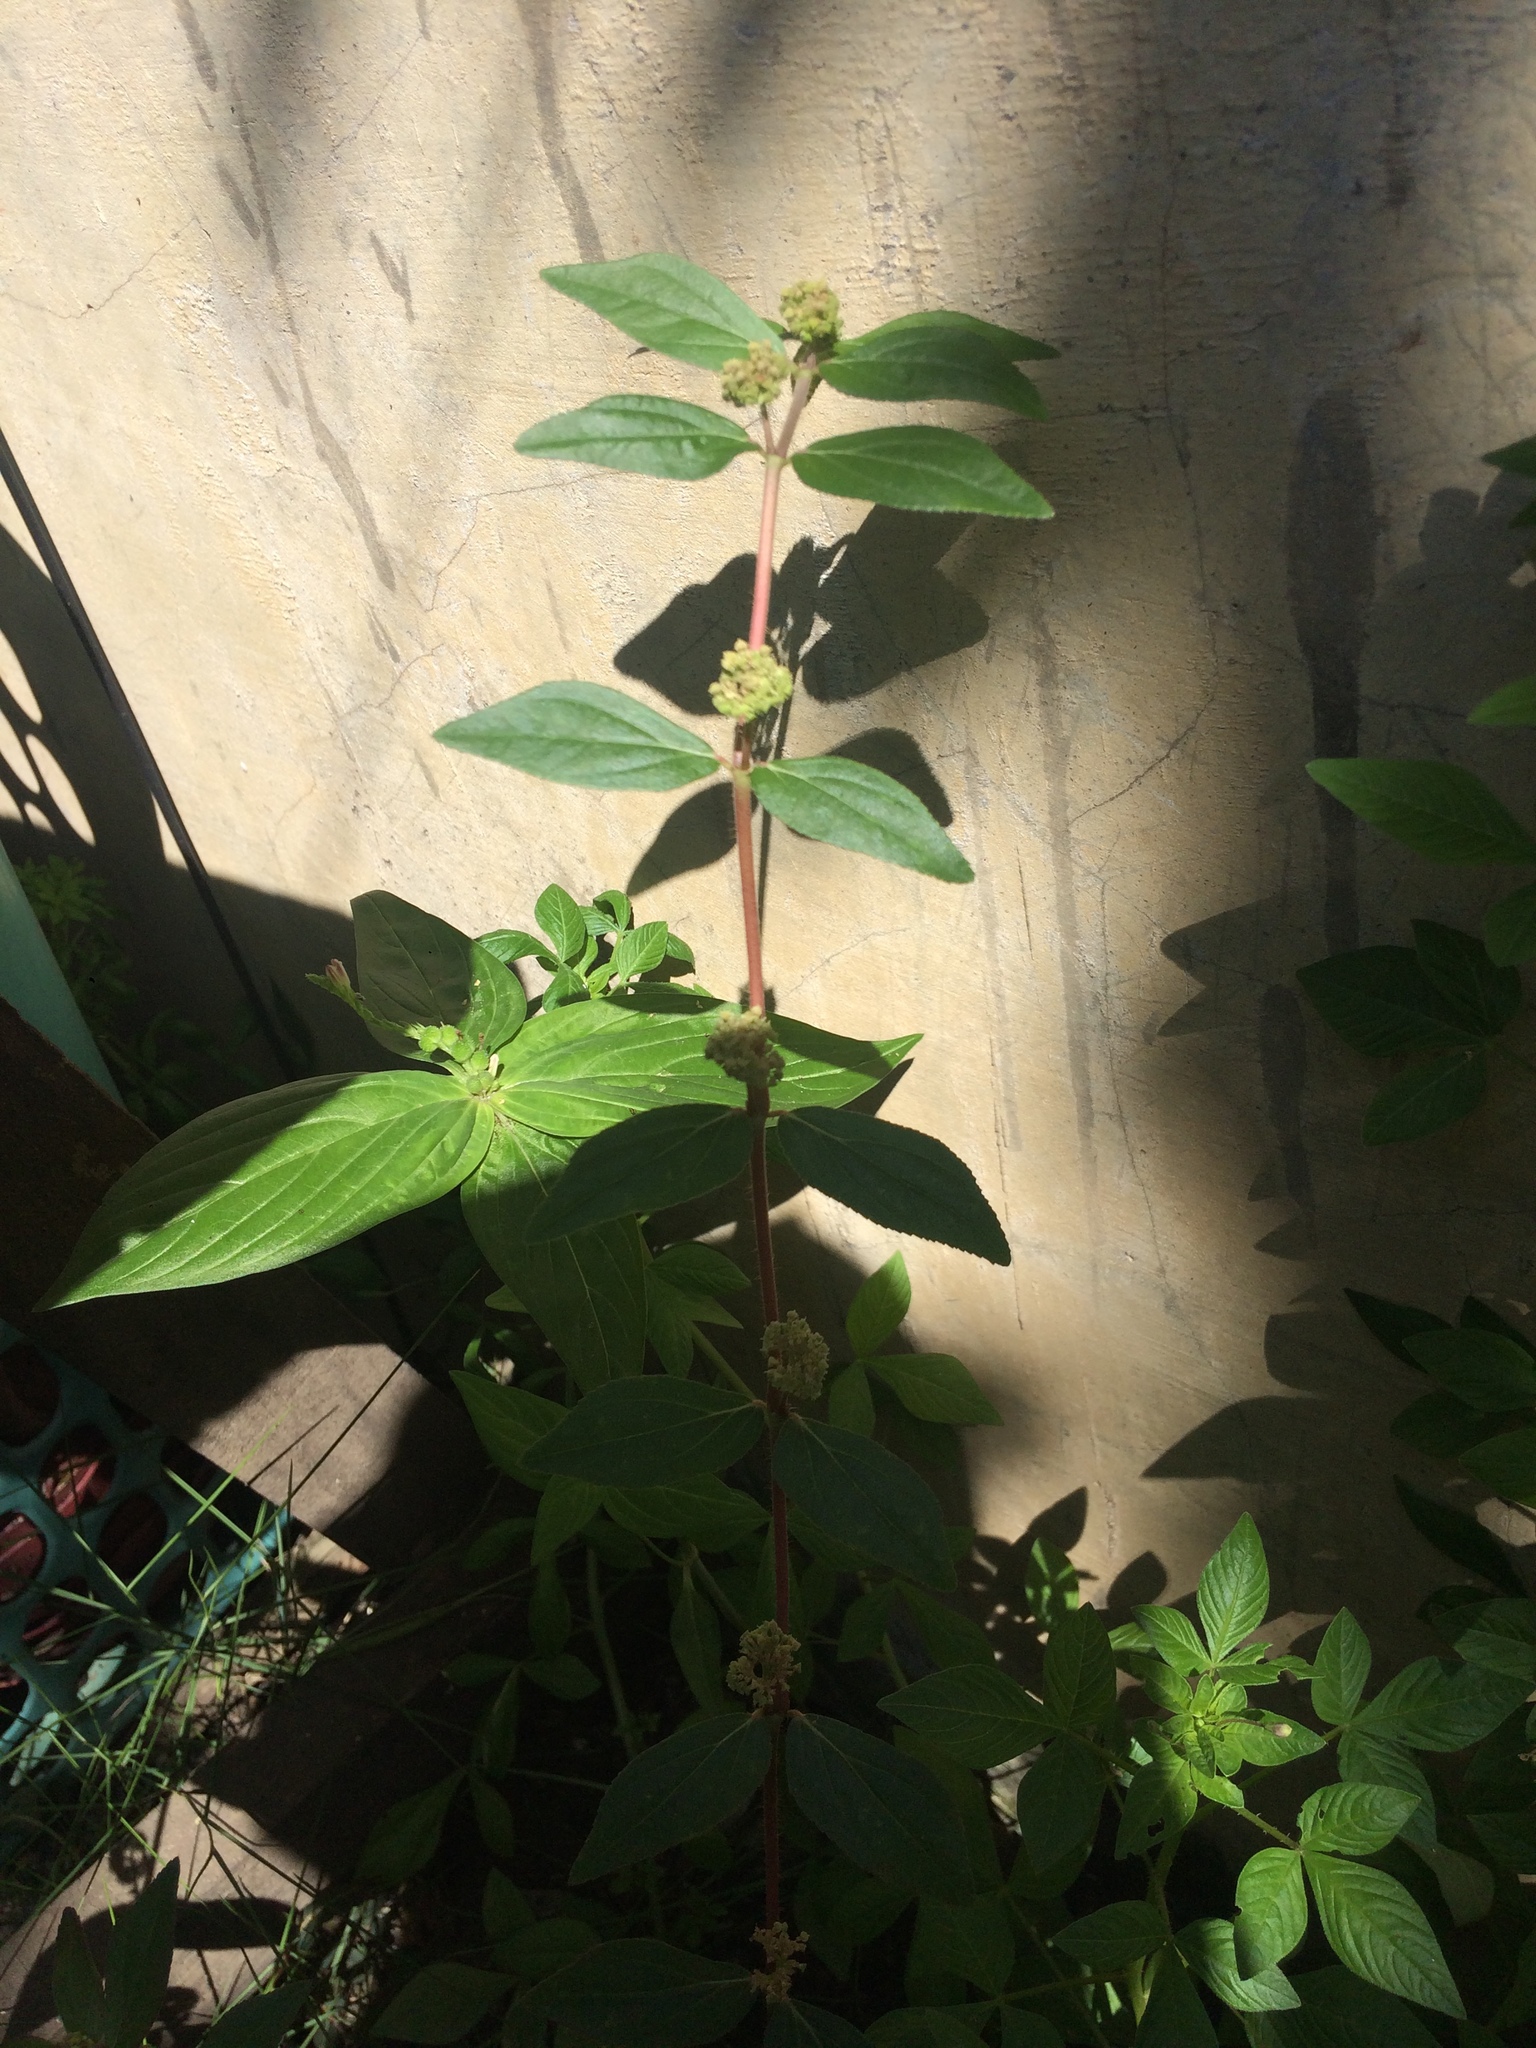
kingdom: Plantae
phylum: Tracheophyta
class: Magnoliopsida
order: Malpighiales
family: Euphorbiaceae
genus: Euphorbia
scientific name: Euphorbia hirta
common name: Pillpod sandmat
